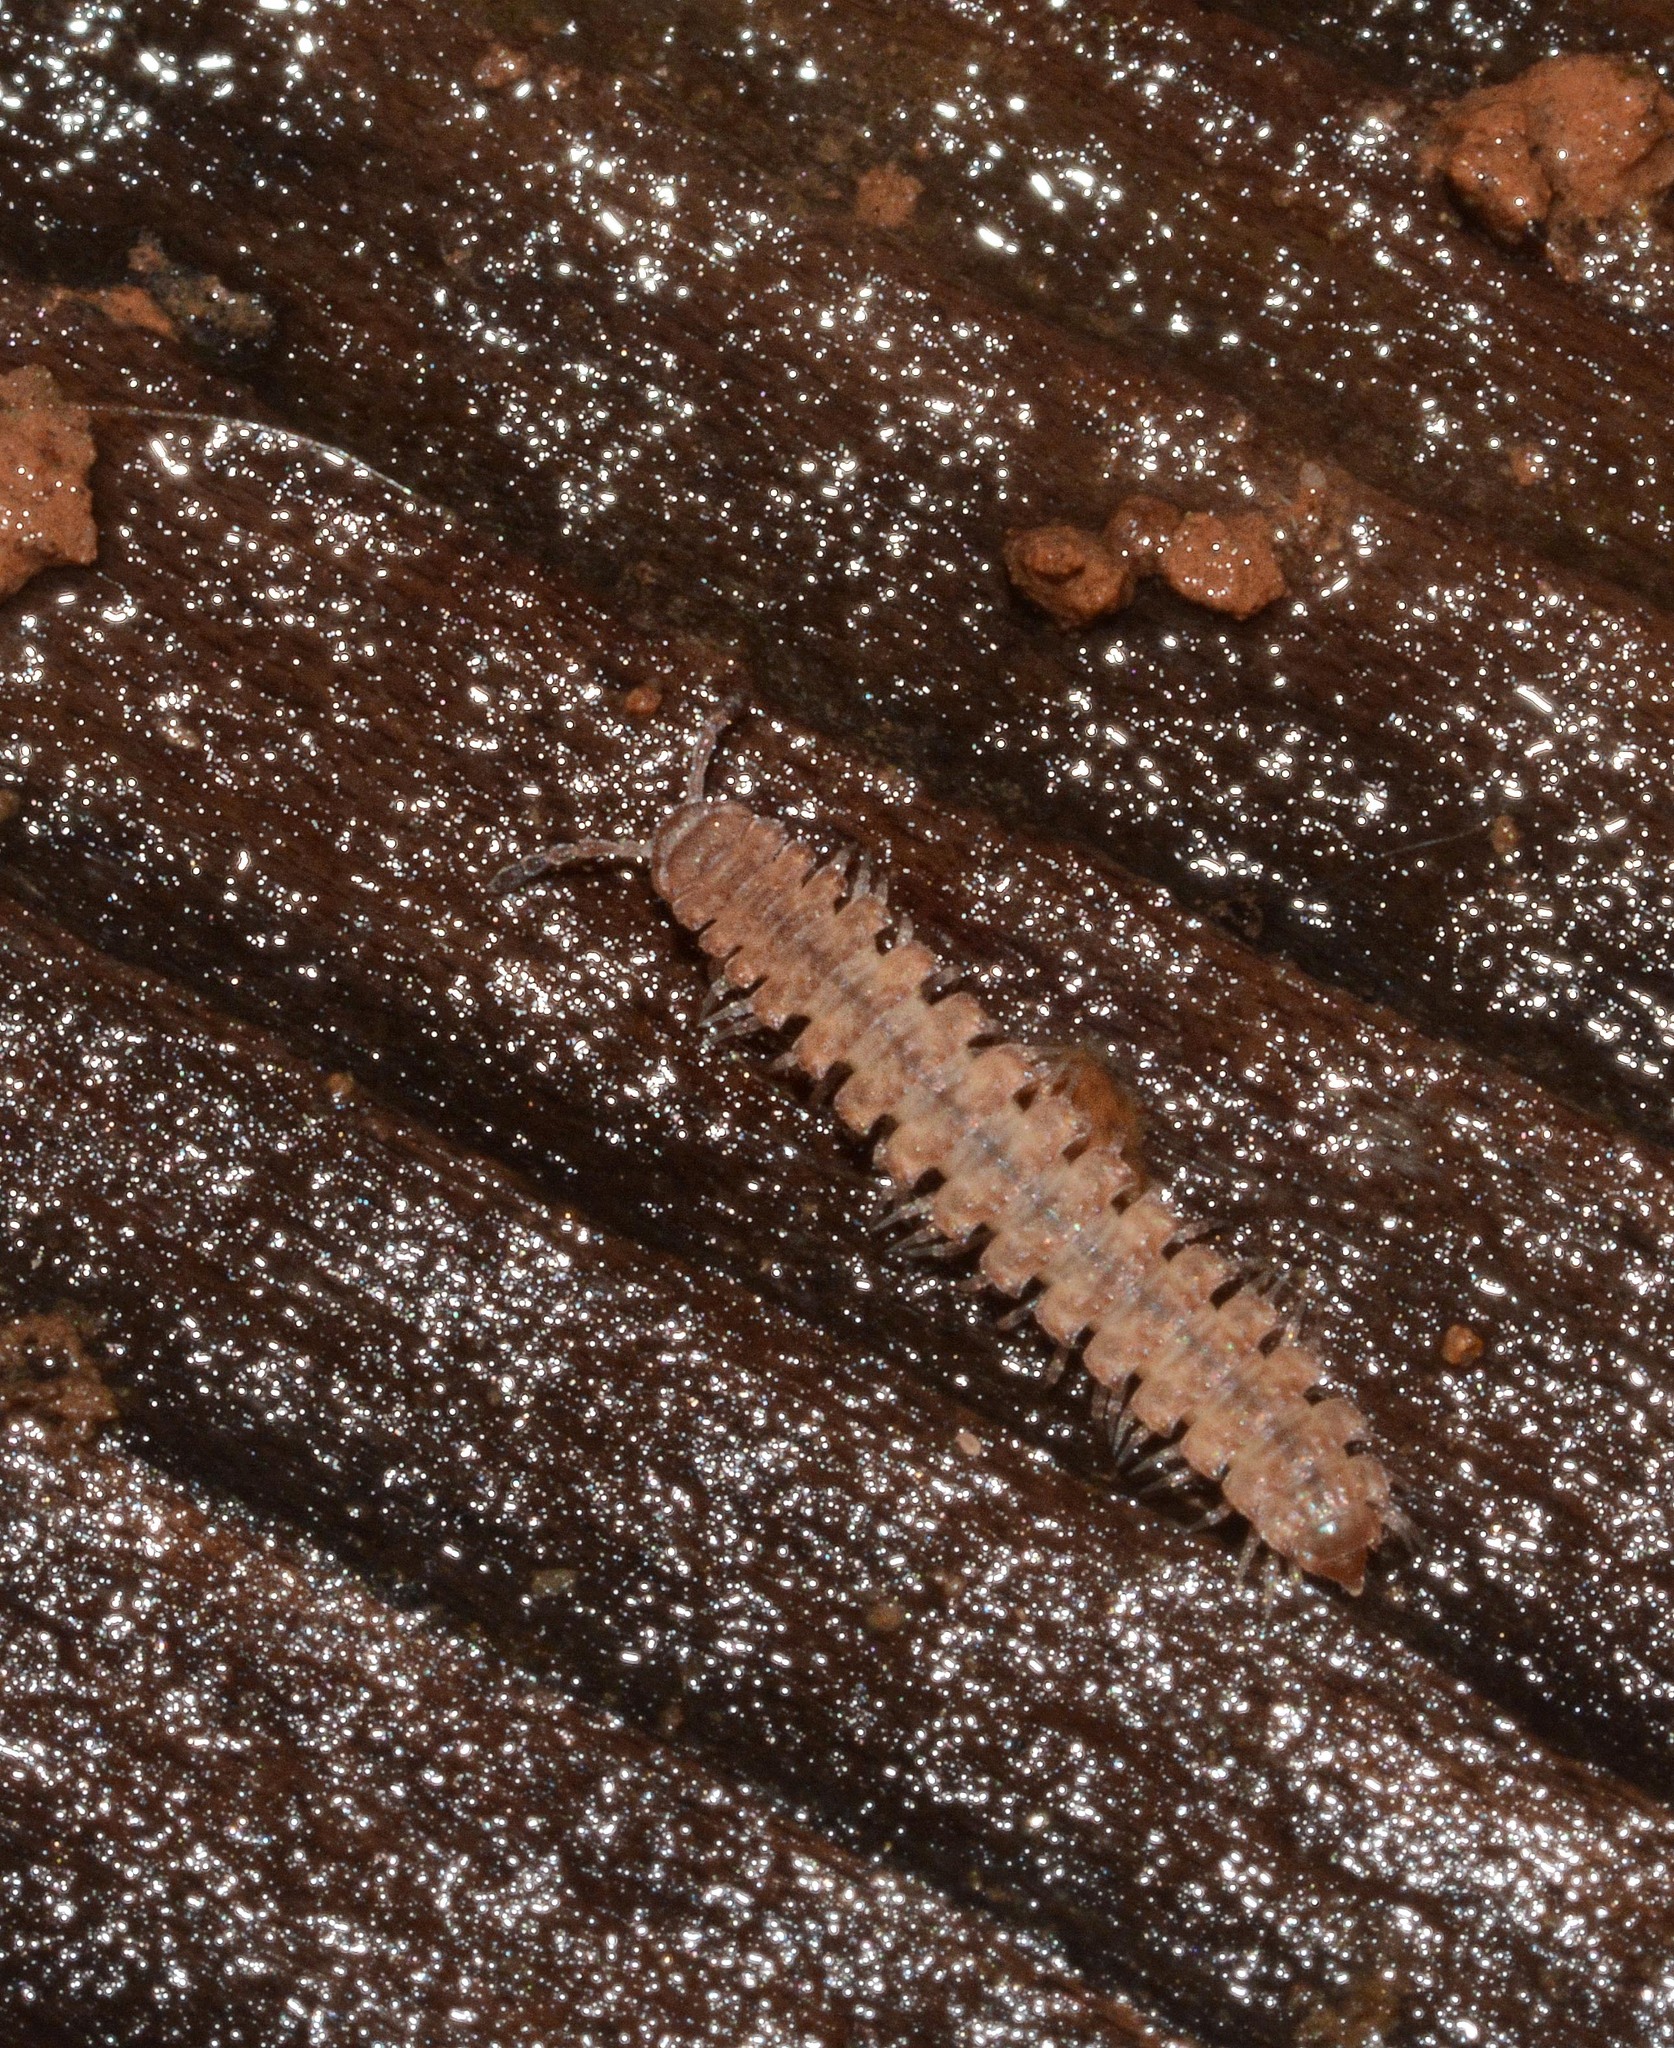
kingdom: Animalia
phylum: Arthropoda
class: Diplopoda
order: Polydesmida
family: Polydesmidae
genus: Polydesmus
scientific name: Polydesmus
